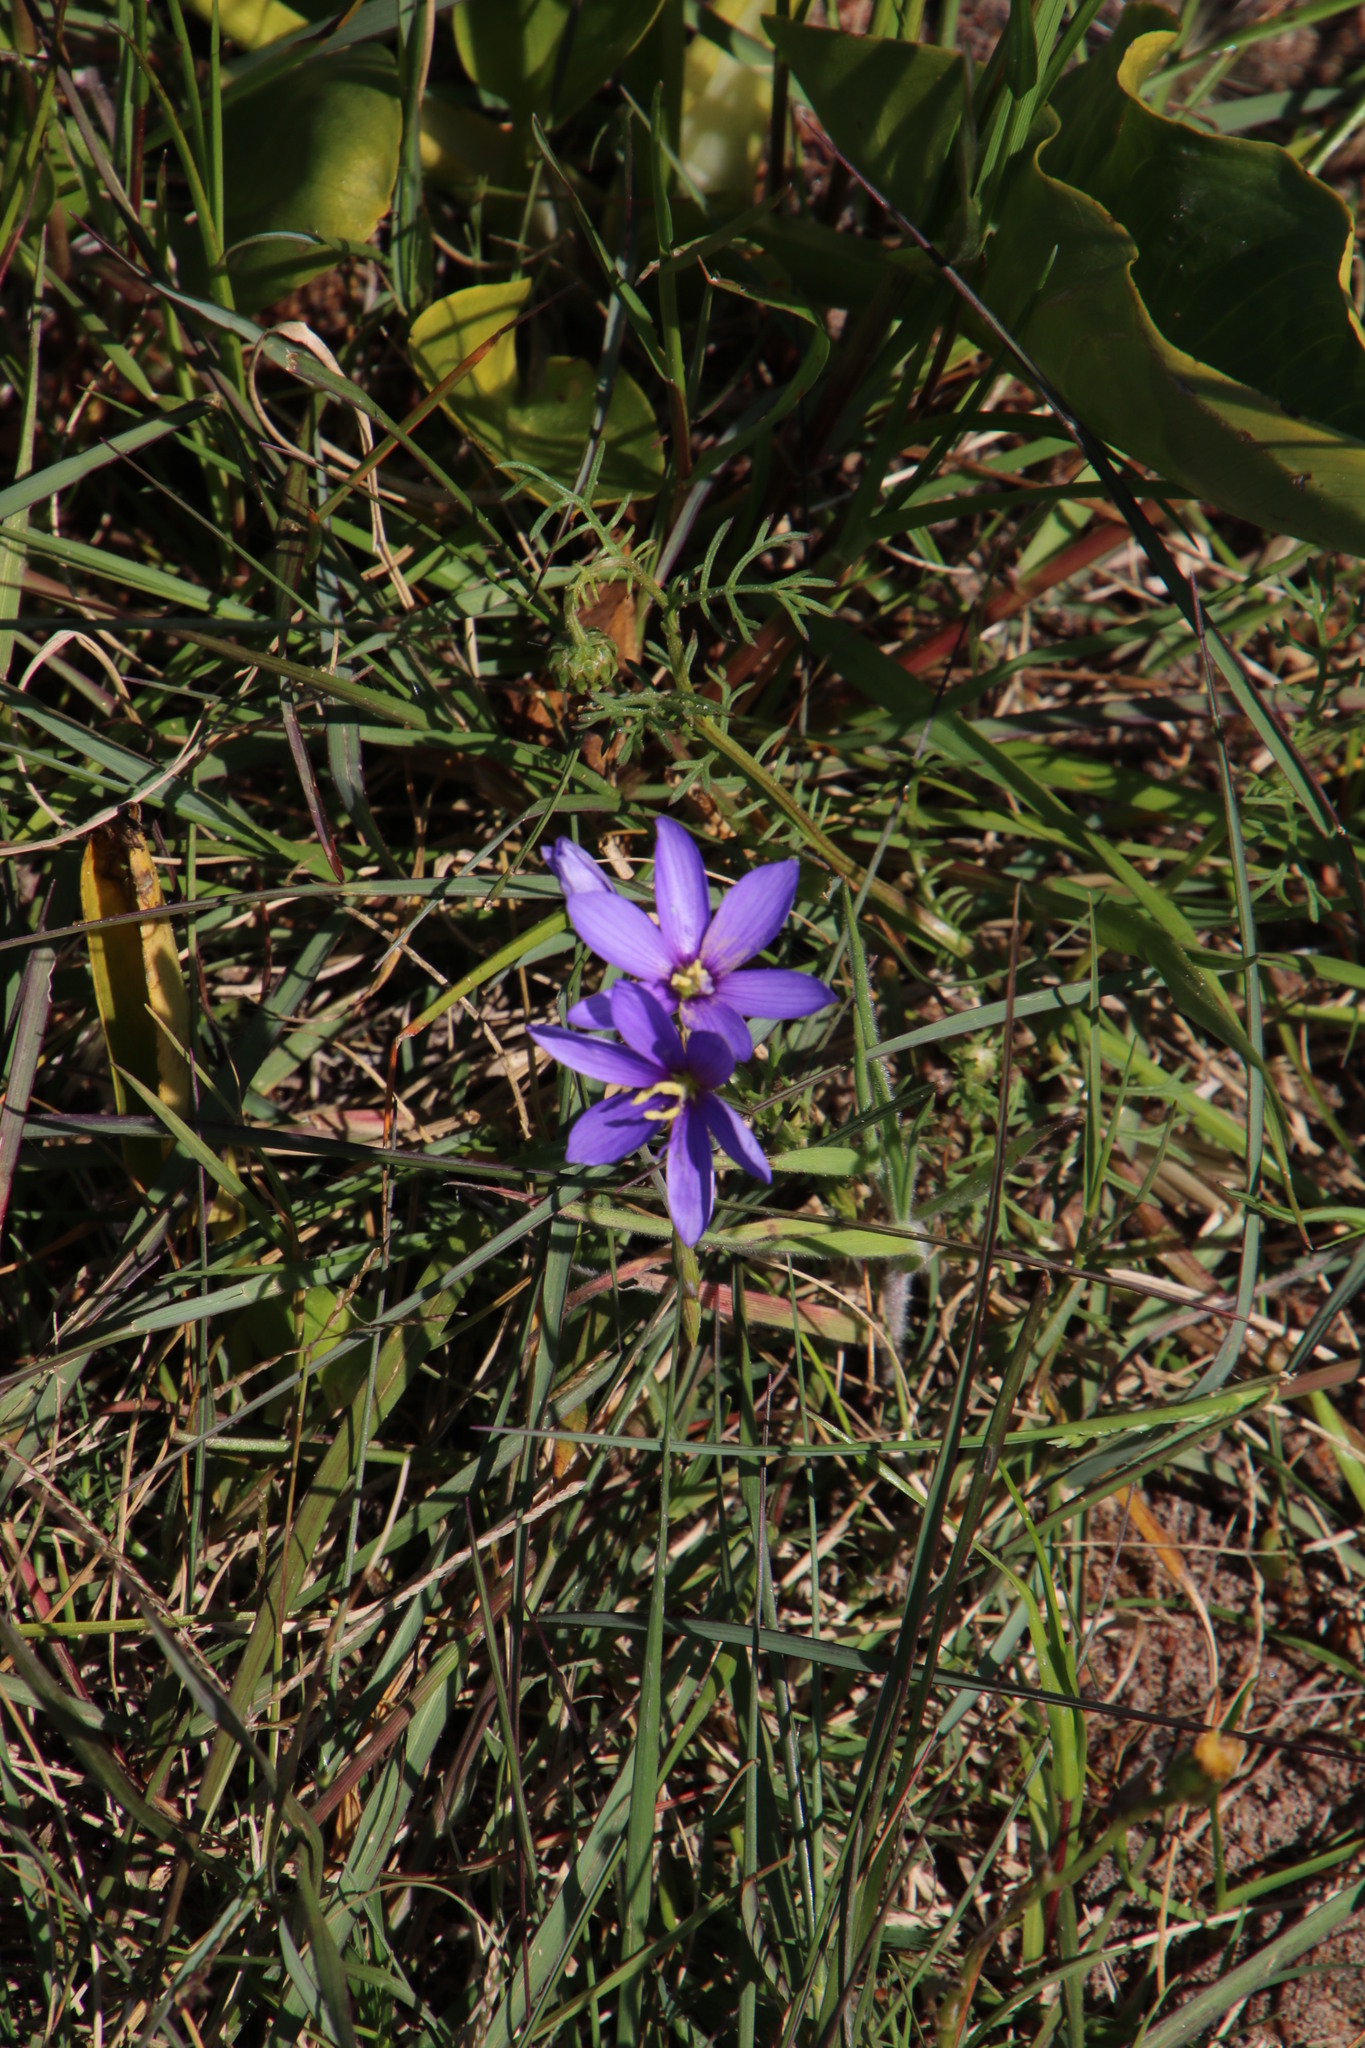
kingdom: Plantae
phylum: Tracheophyta
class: Liliopsida
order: Asparagales
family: Iridaceae
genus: Geissorhiza
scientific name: Geissorhiza aspera
